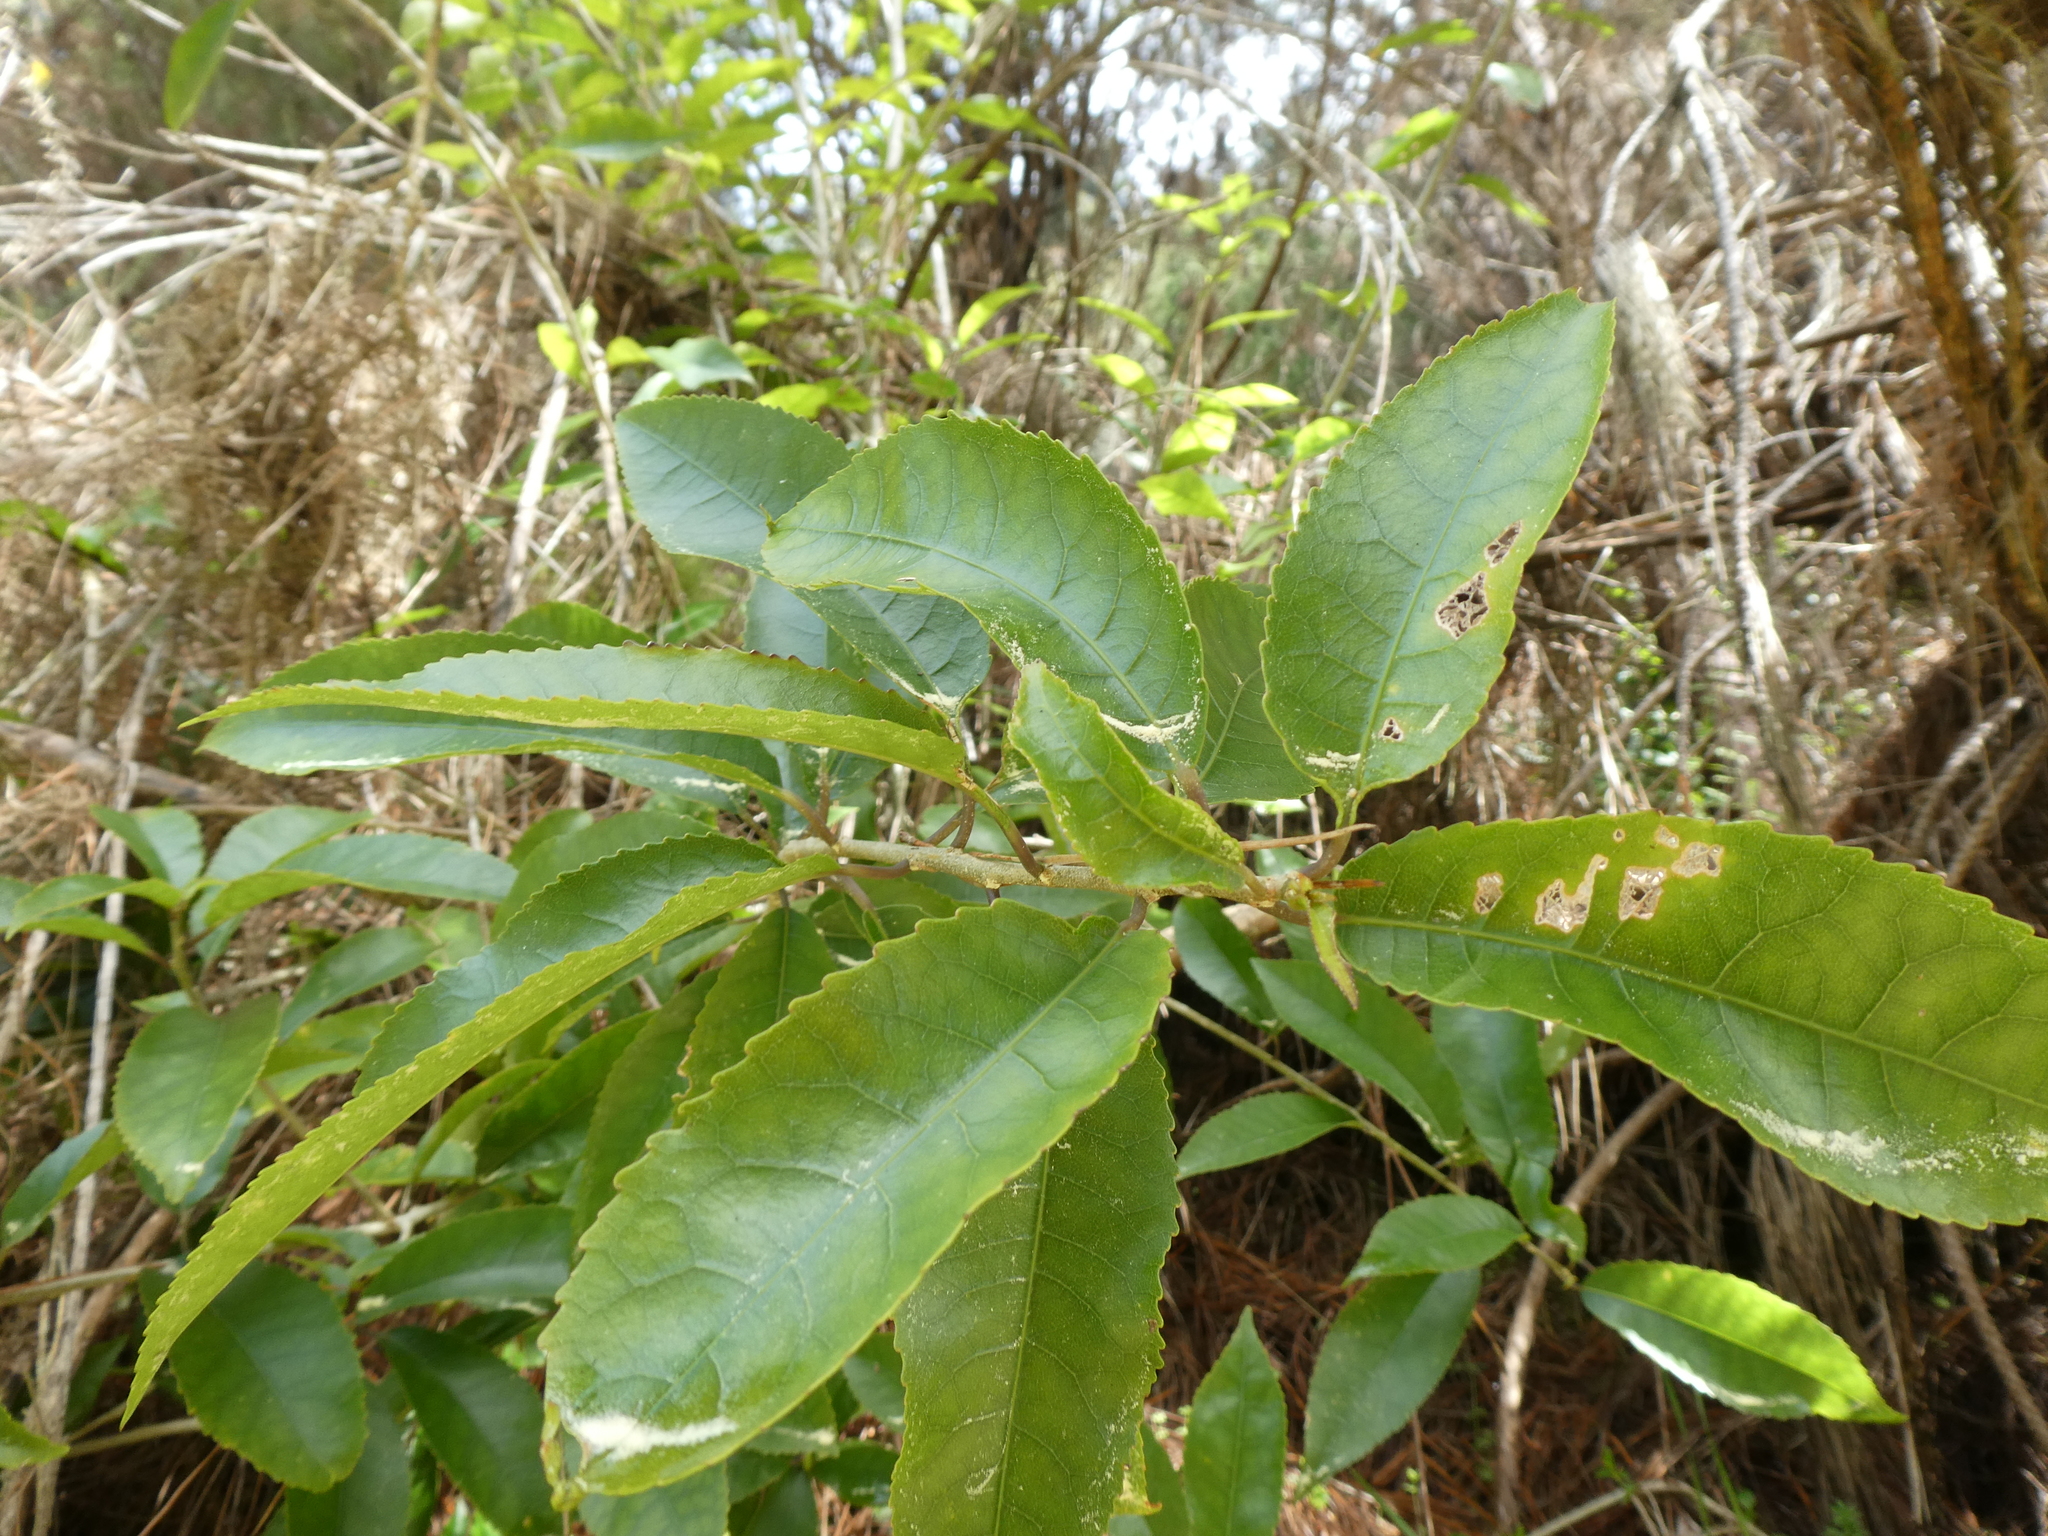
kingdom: Plantae
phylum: Tracheophyta
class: Magnoliopsida
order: Malpighiales
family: Violaceae
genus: Melicytus
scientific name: Melicytus ramiflorus
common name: Mahoe
